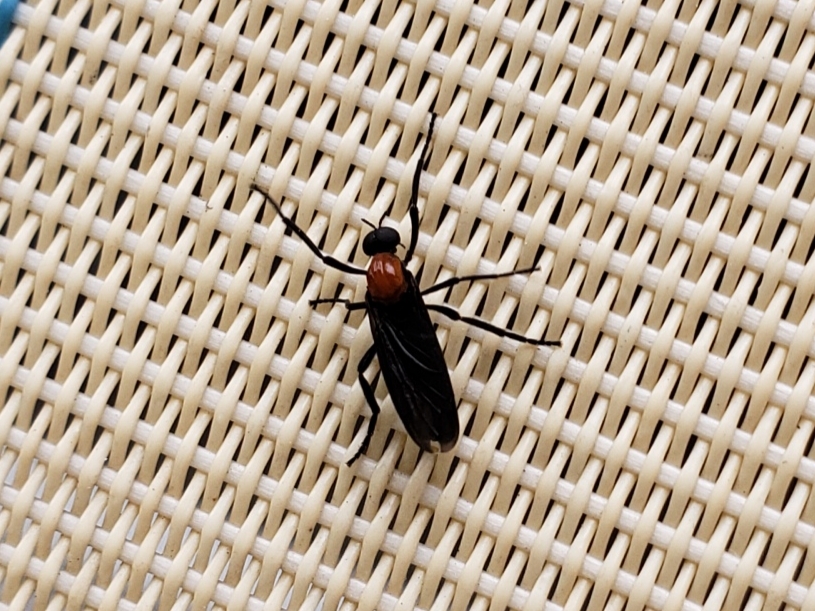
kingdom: Animalia
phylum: Arthropoda
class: Insecta
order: Diptera
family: Bibionidae
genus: Plecia
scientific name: Plecia nearctica
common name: March fly
